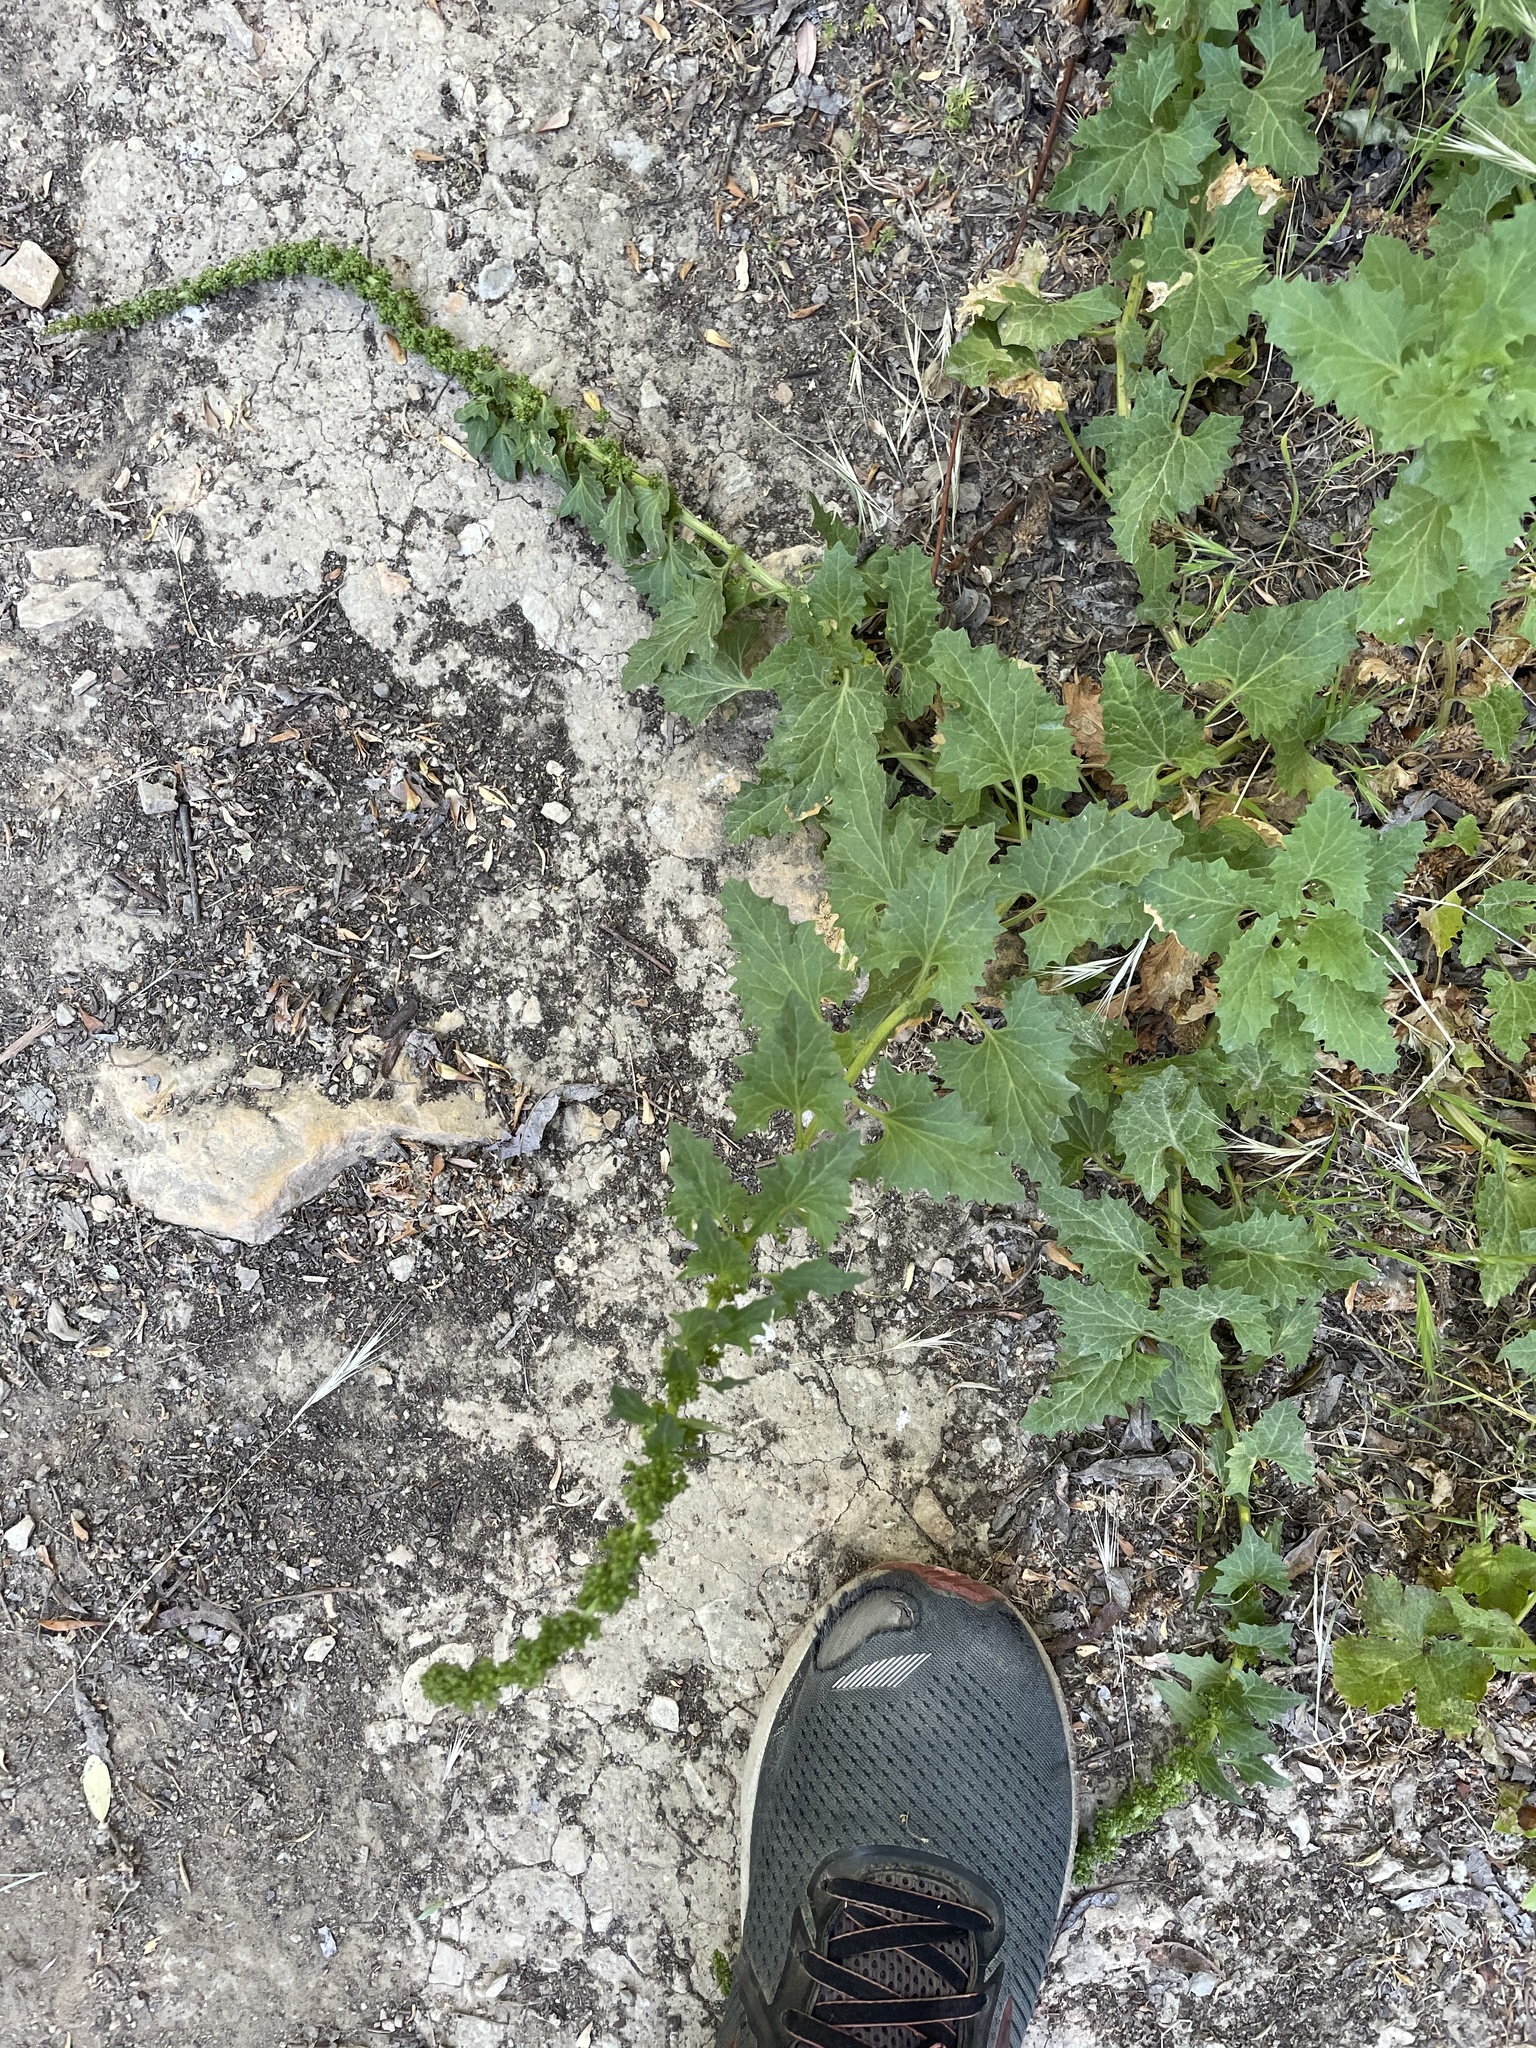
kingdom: Plantae
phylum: Tracheophyta
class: Magnoliopsida
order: Caryophyllales
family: Amaranthaceae
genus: Blitum
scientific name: Blitum californicum
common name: California goosefoot
